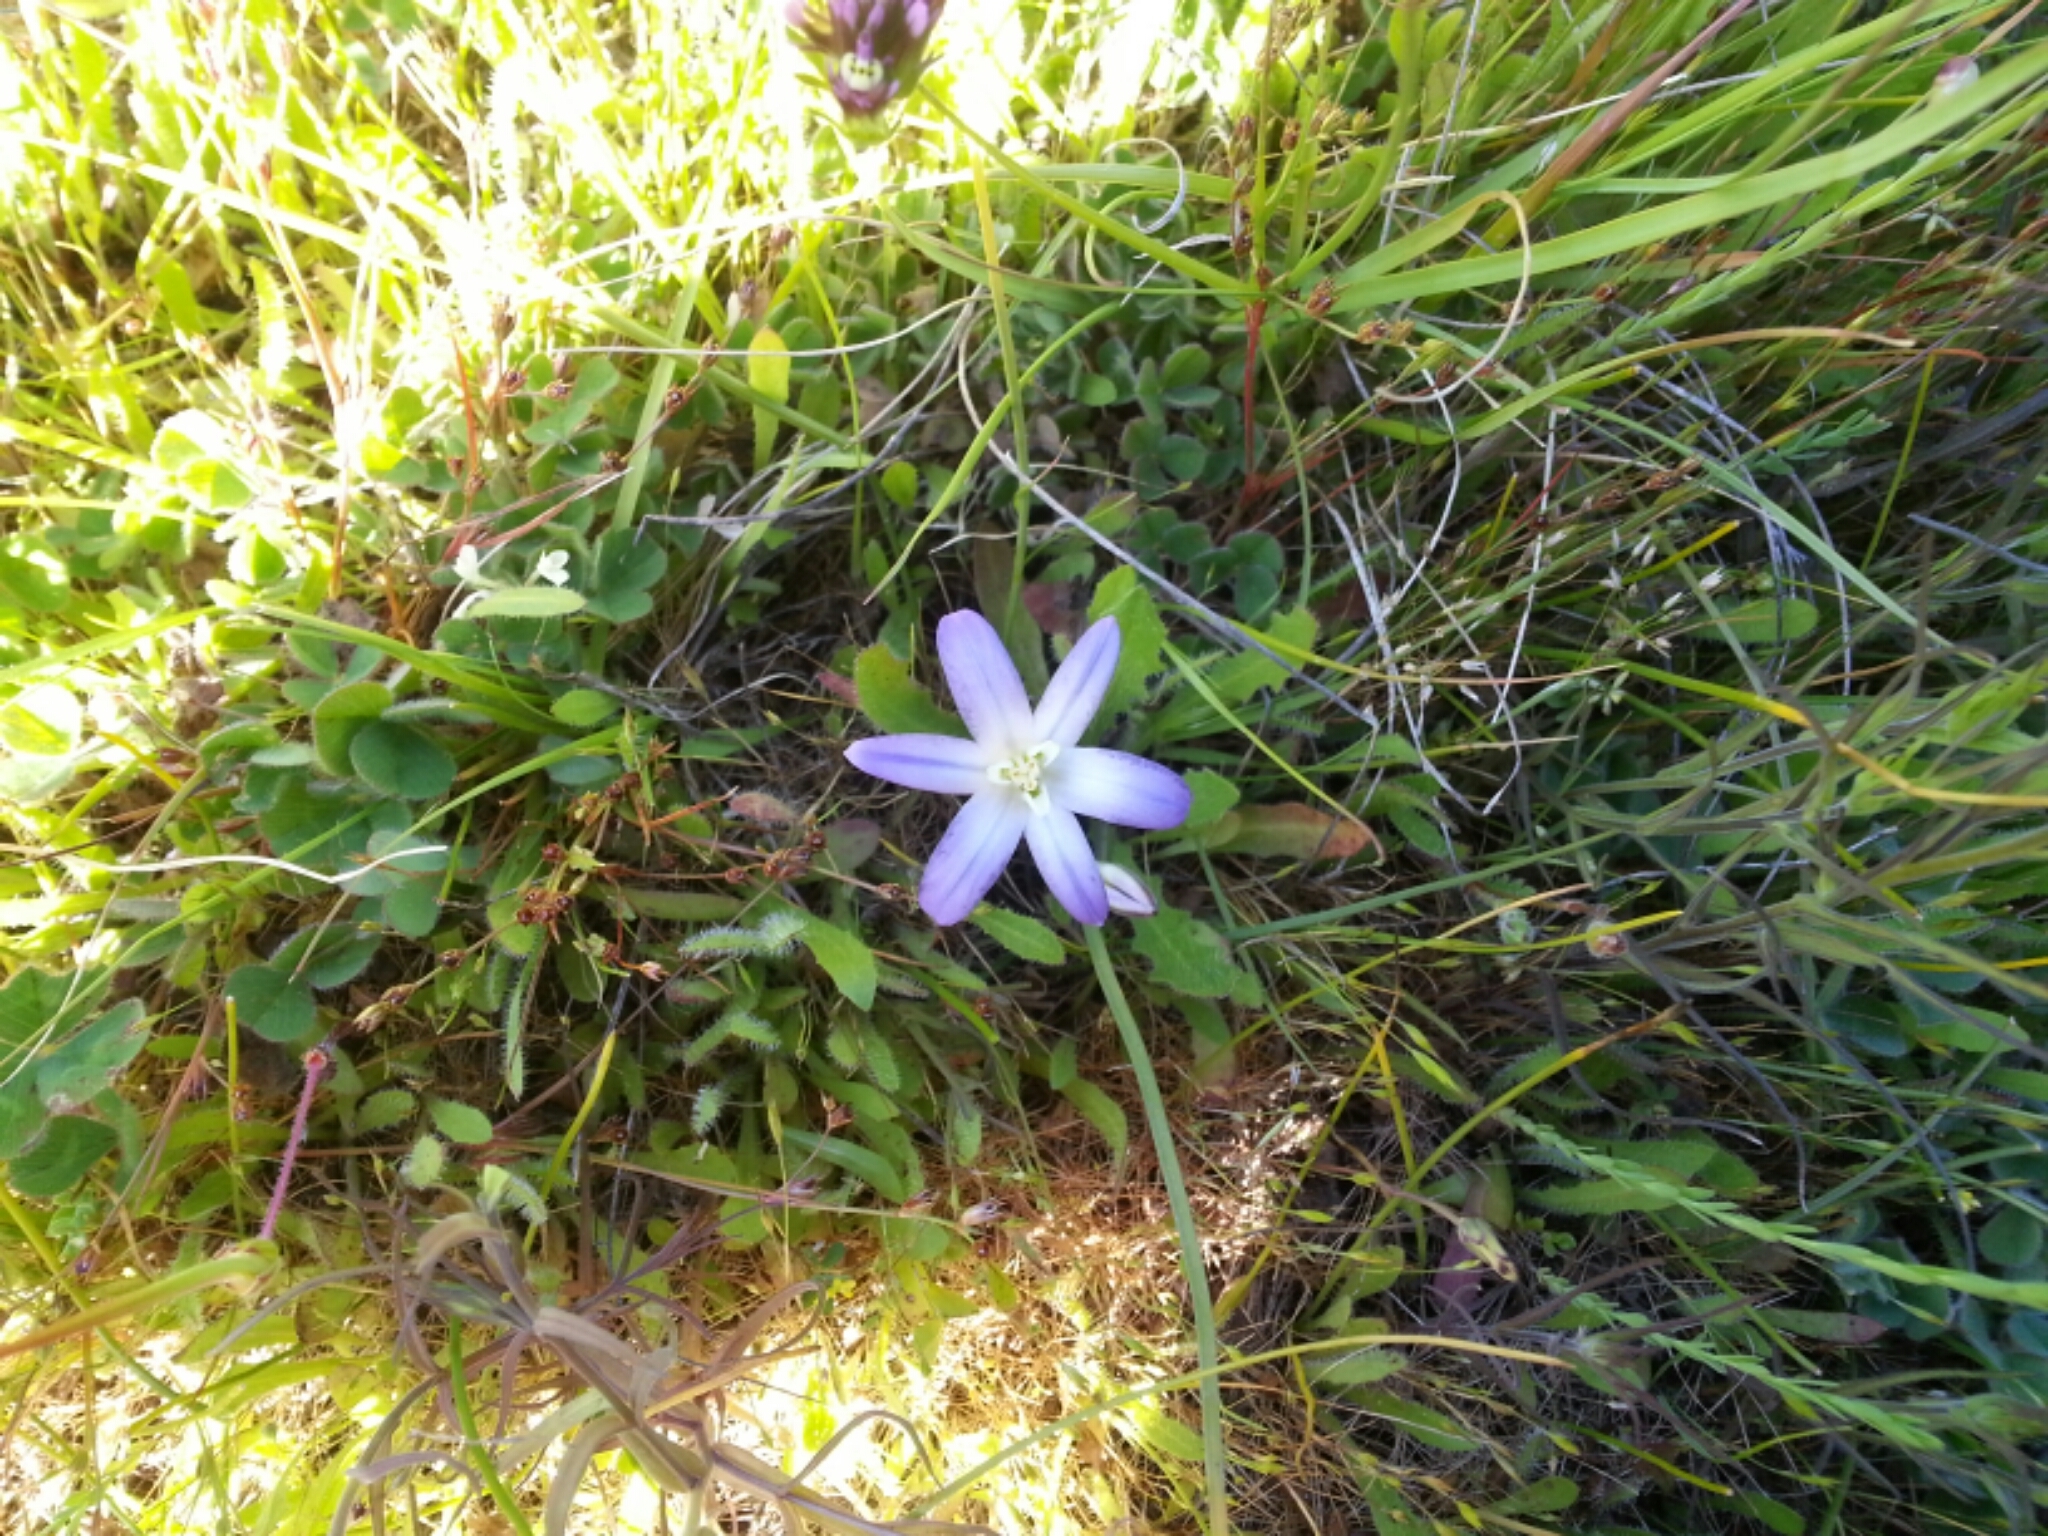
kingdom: Plantae
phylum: Tracheophyta
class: Liliopsida
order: Asparagales
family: Asparagaceae
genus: Brodiaea
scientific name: Brodiaea terrestris
